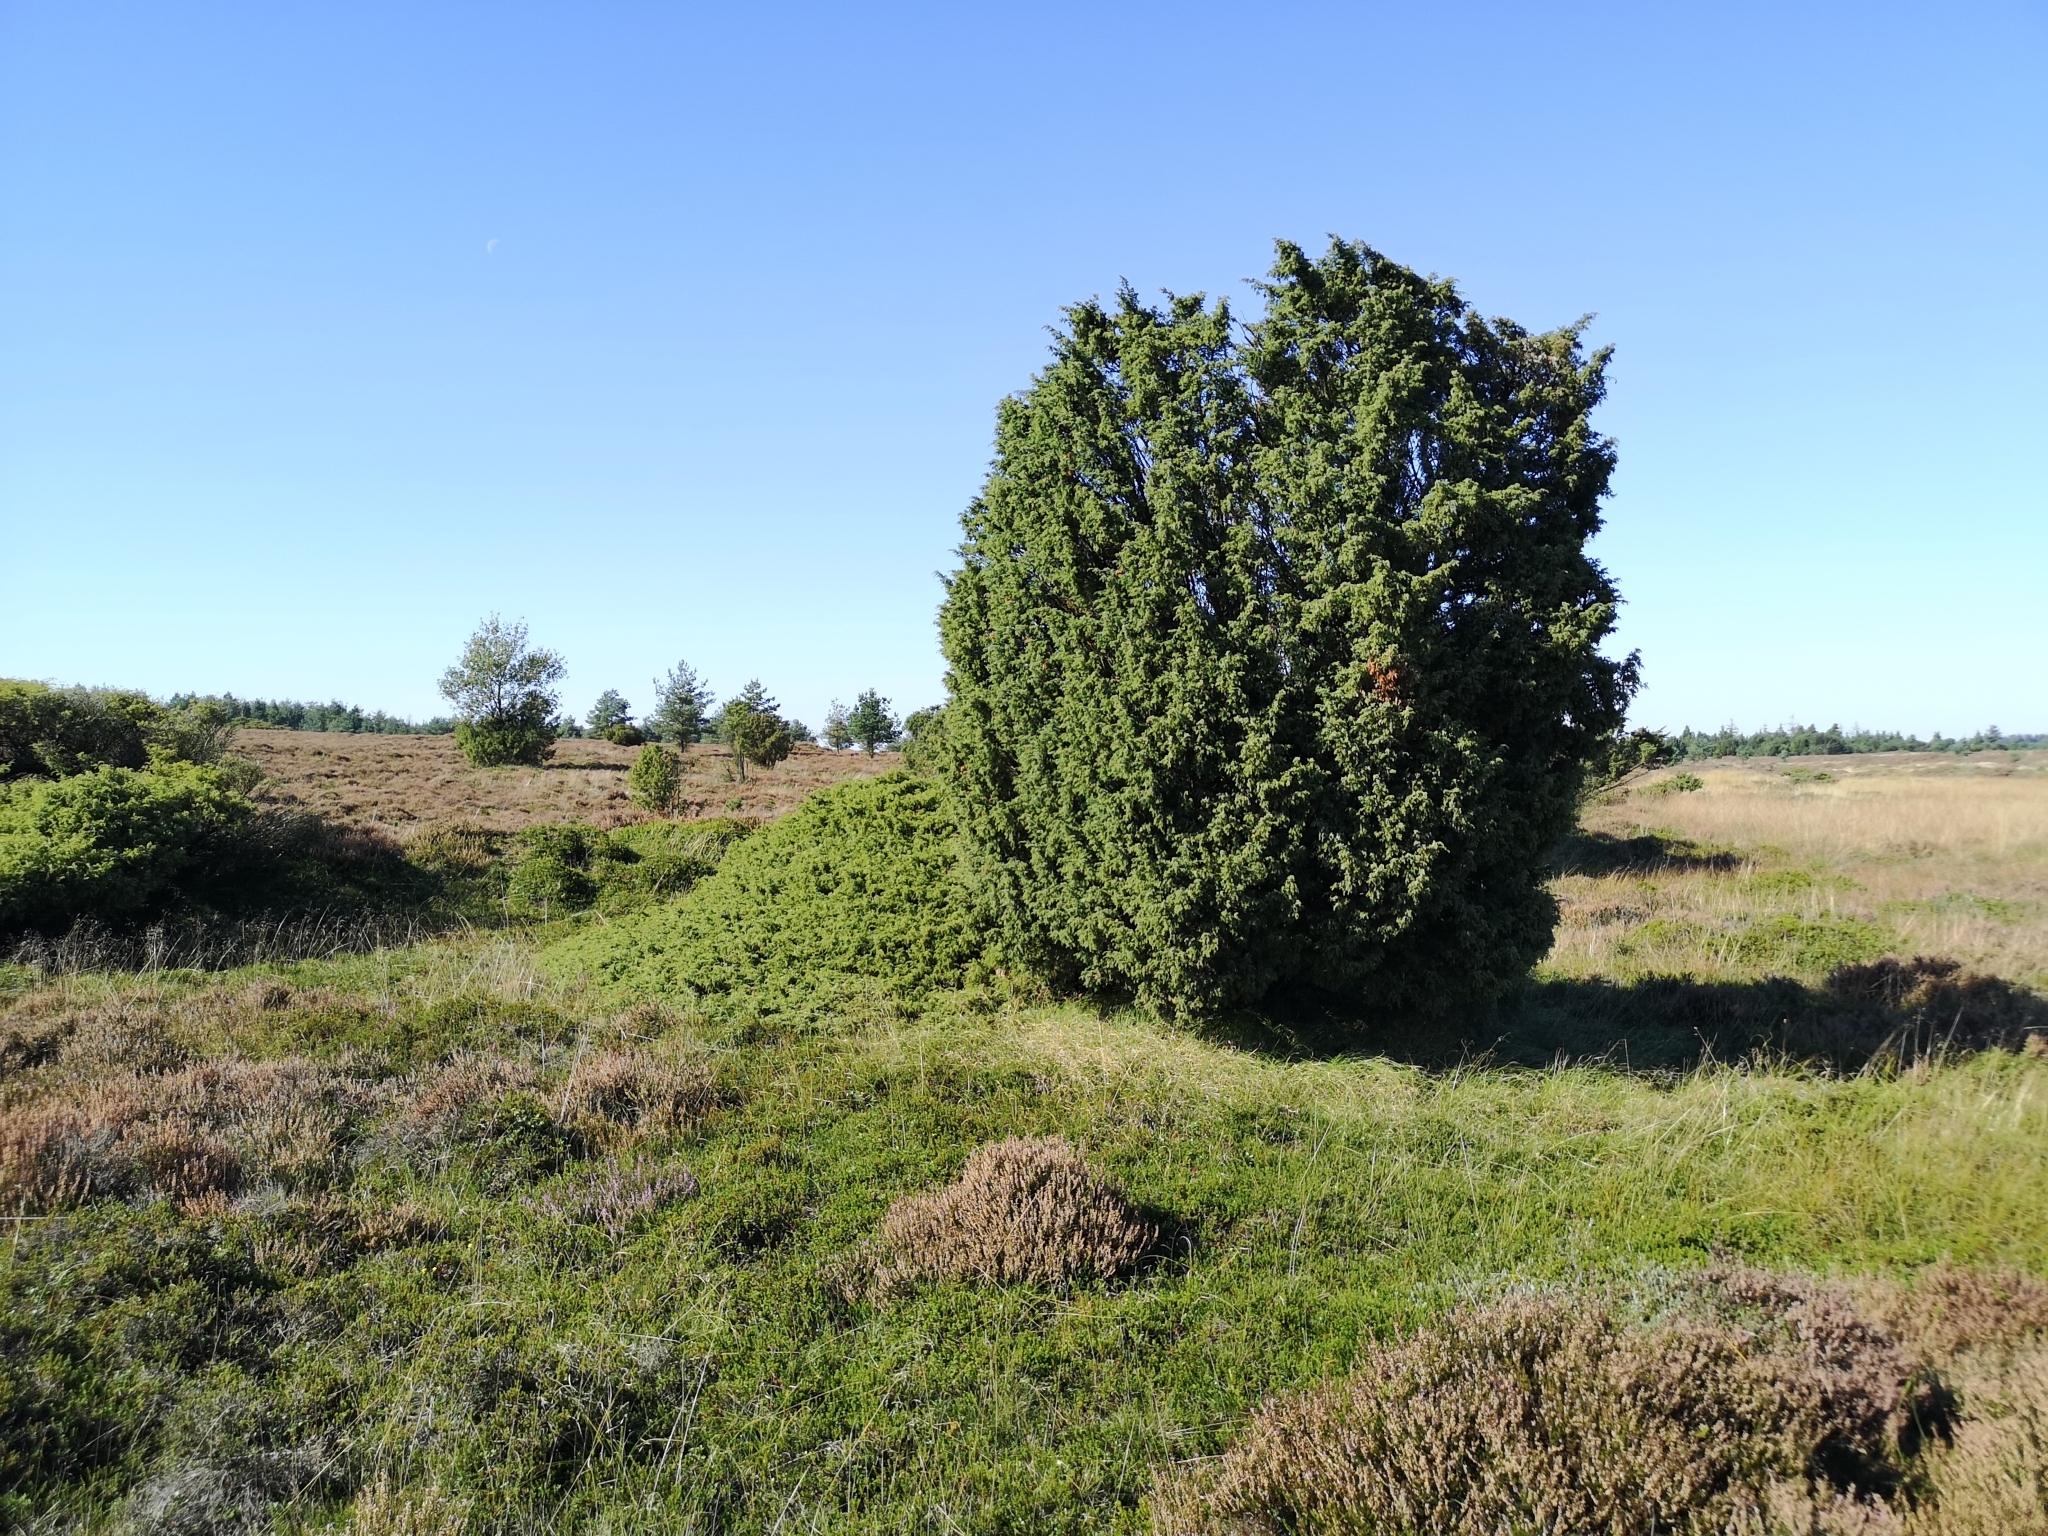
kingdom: Plantae
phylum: Tracheophyta
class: Pinopsida
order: Pinales
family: Cupressaceae
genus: Juniperus
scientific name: Juniperus communis
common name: Common juniper
